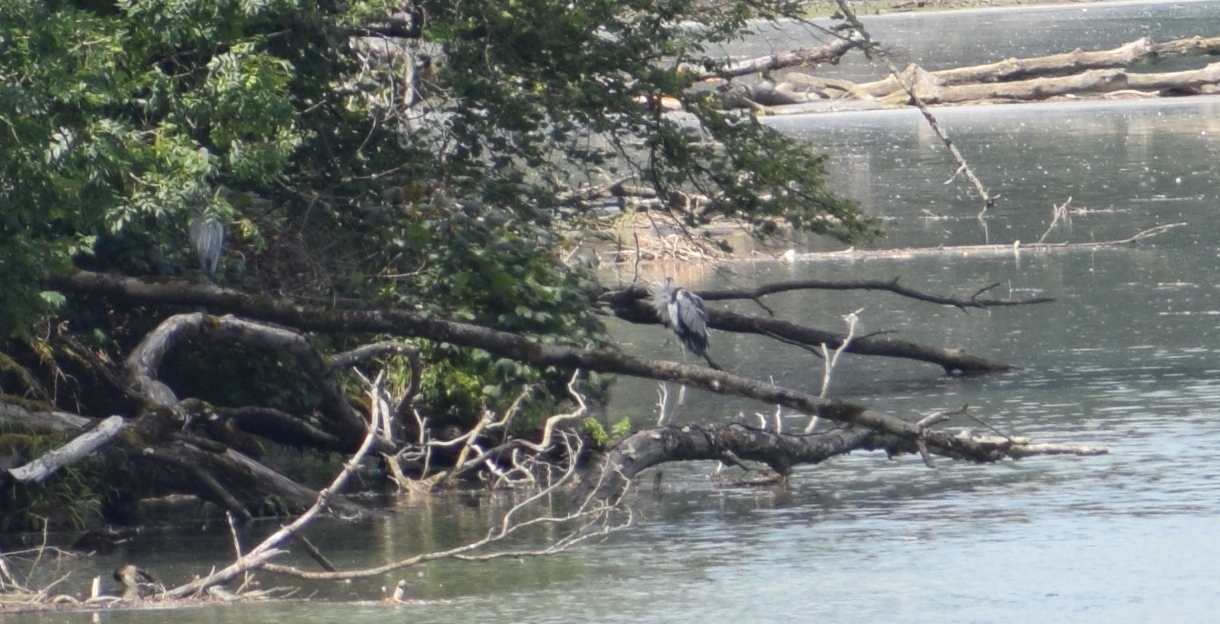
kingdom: Animalia
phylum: Chordata
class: Aves
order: Pelecaniformes
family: Ardeidae
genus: Ardea
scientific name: Ardea cinerea
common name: Grey heron
